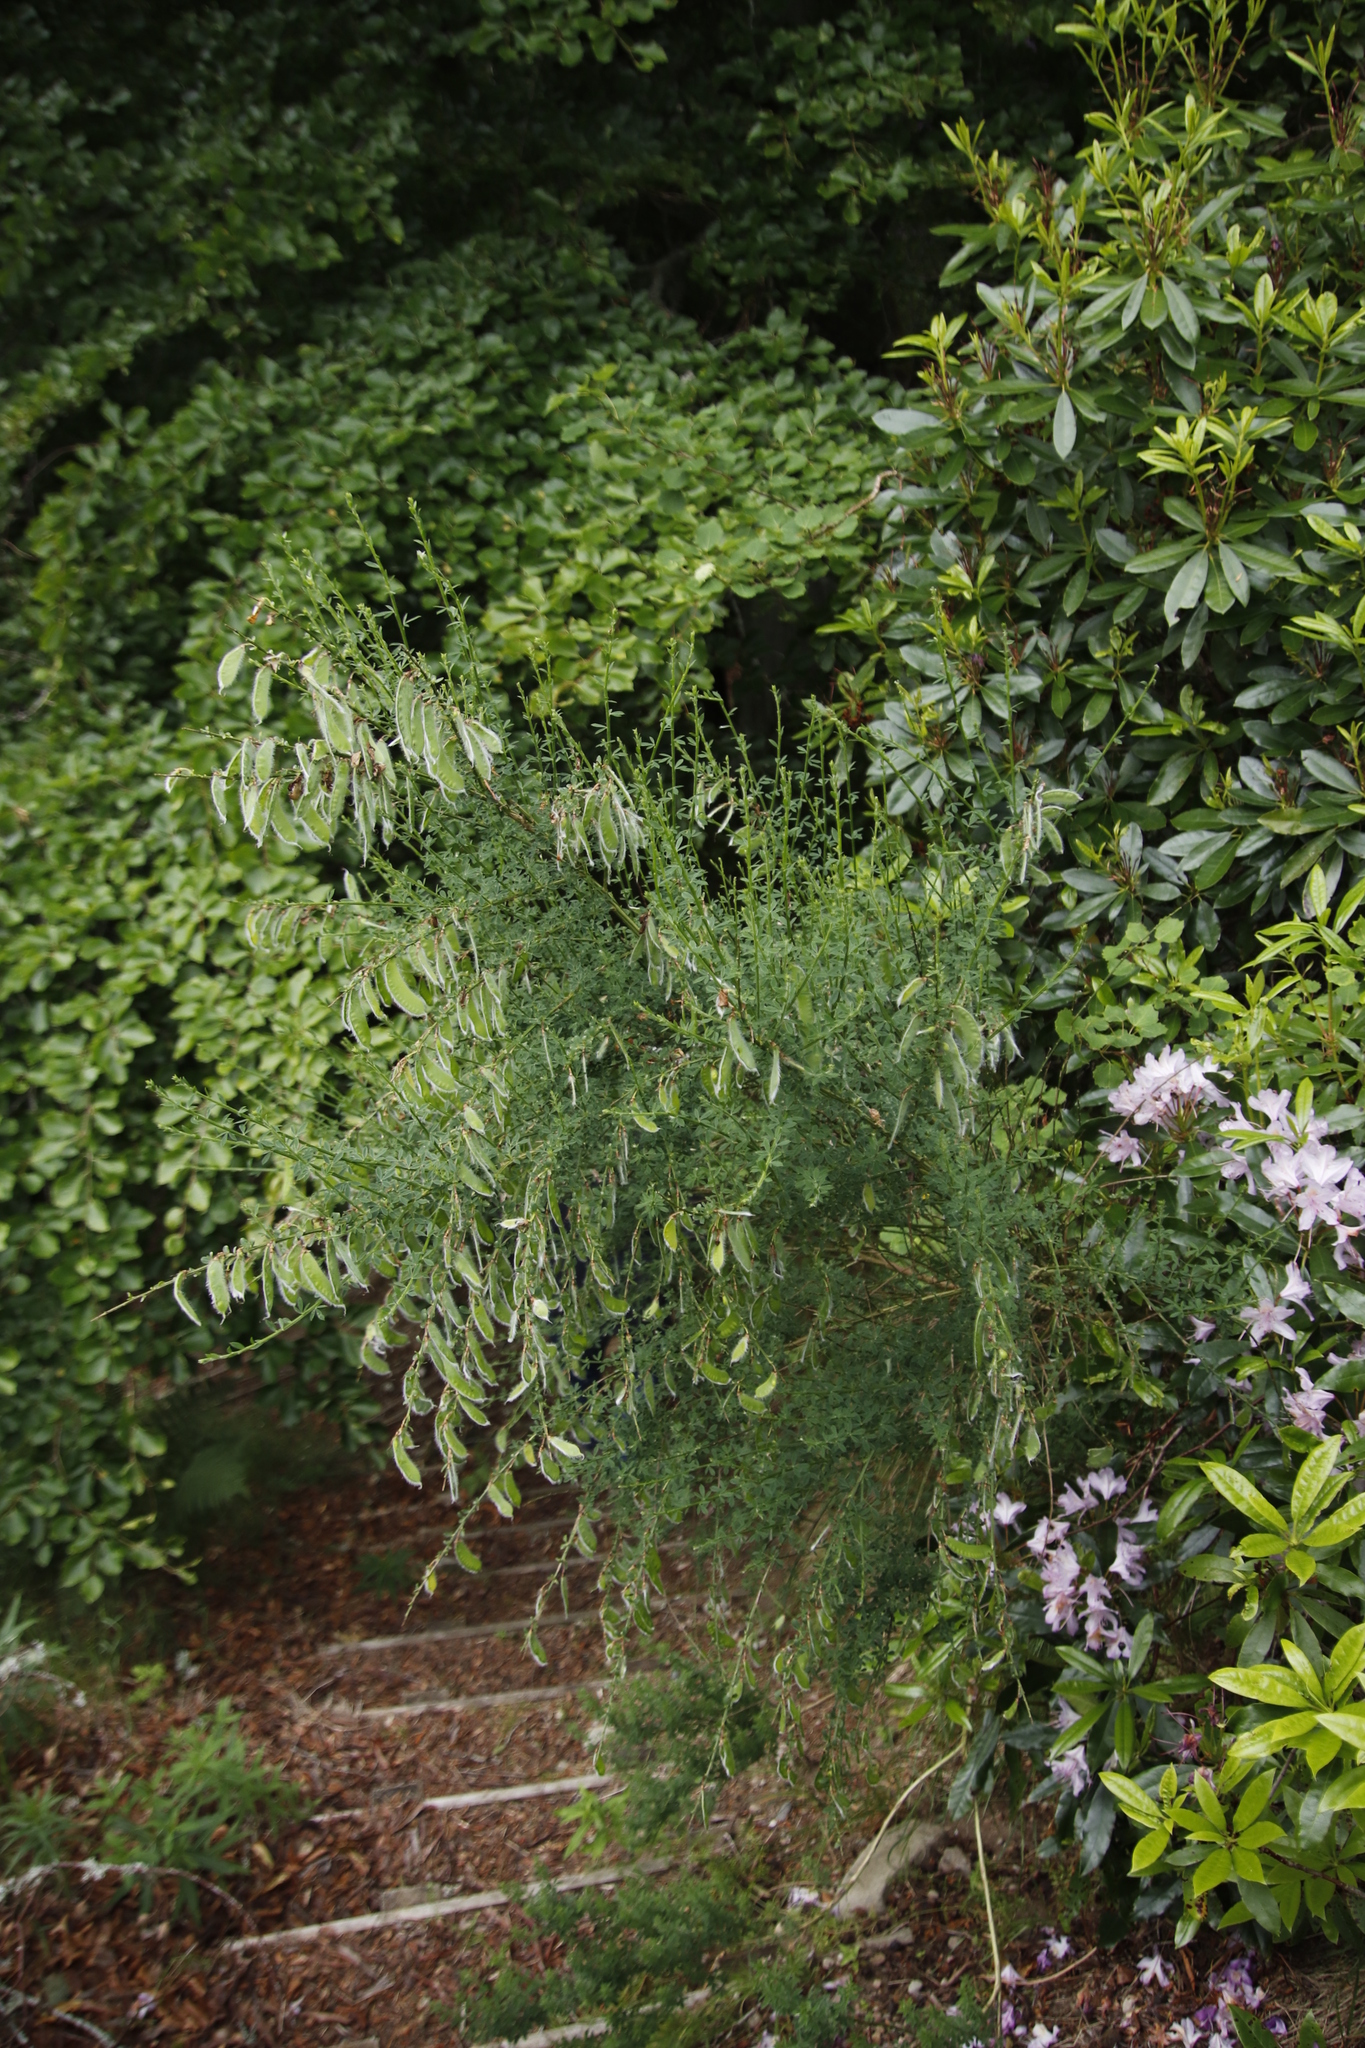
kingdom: Plantae
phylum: Tracheophyta
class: Magnoliopsida
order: Fabales
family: Fabaceae
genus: Cytisus
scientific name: Cytisus scoparius
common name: Scotch broom
